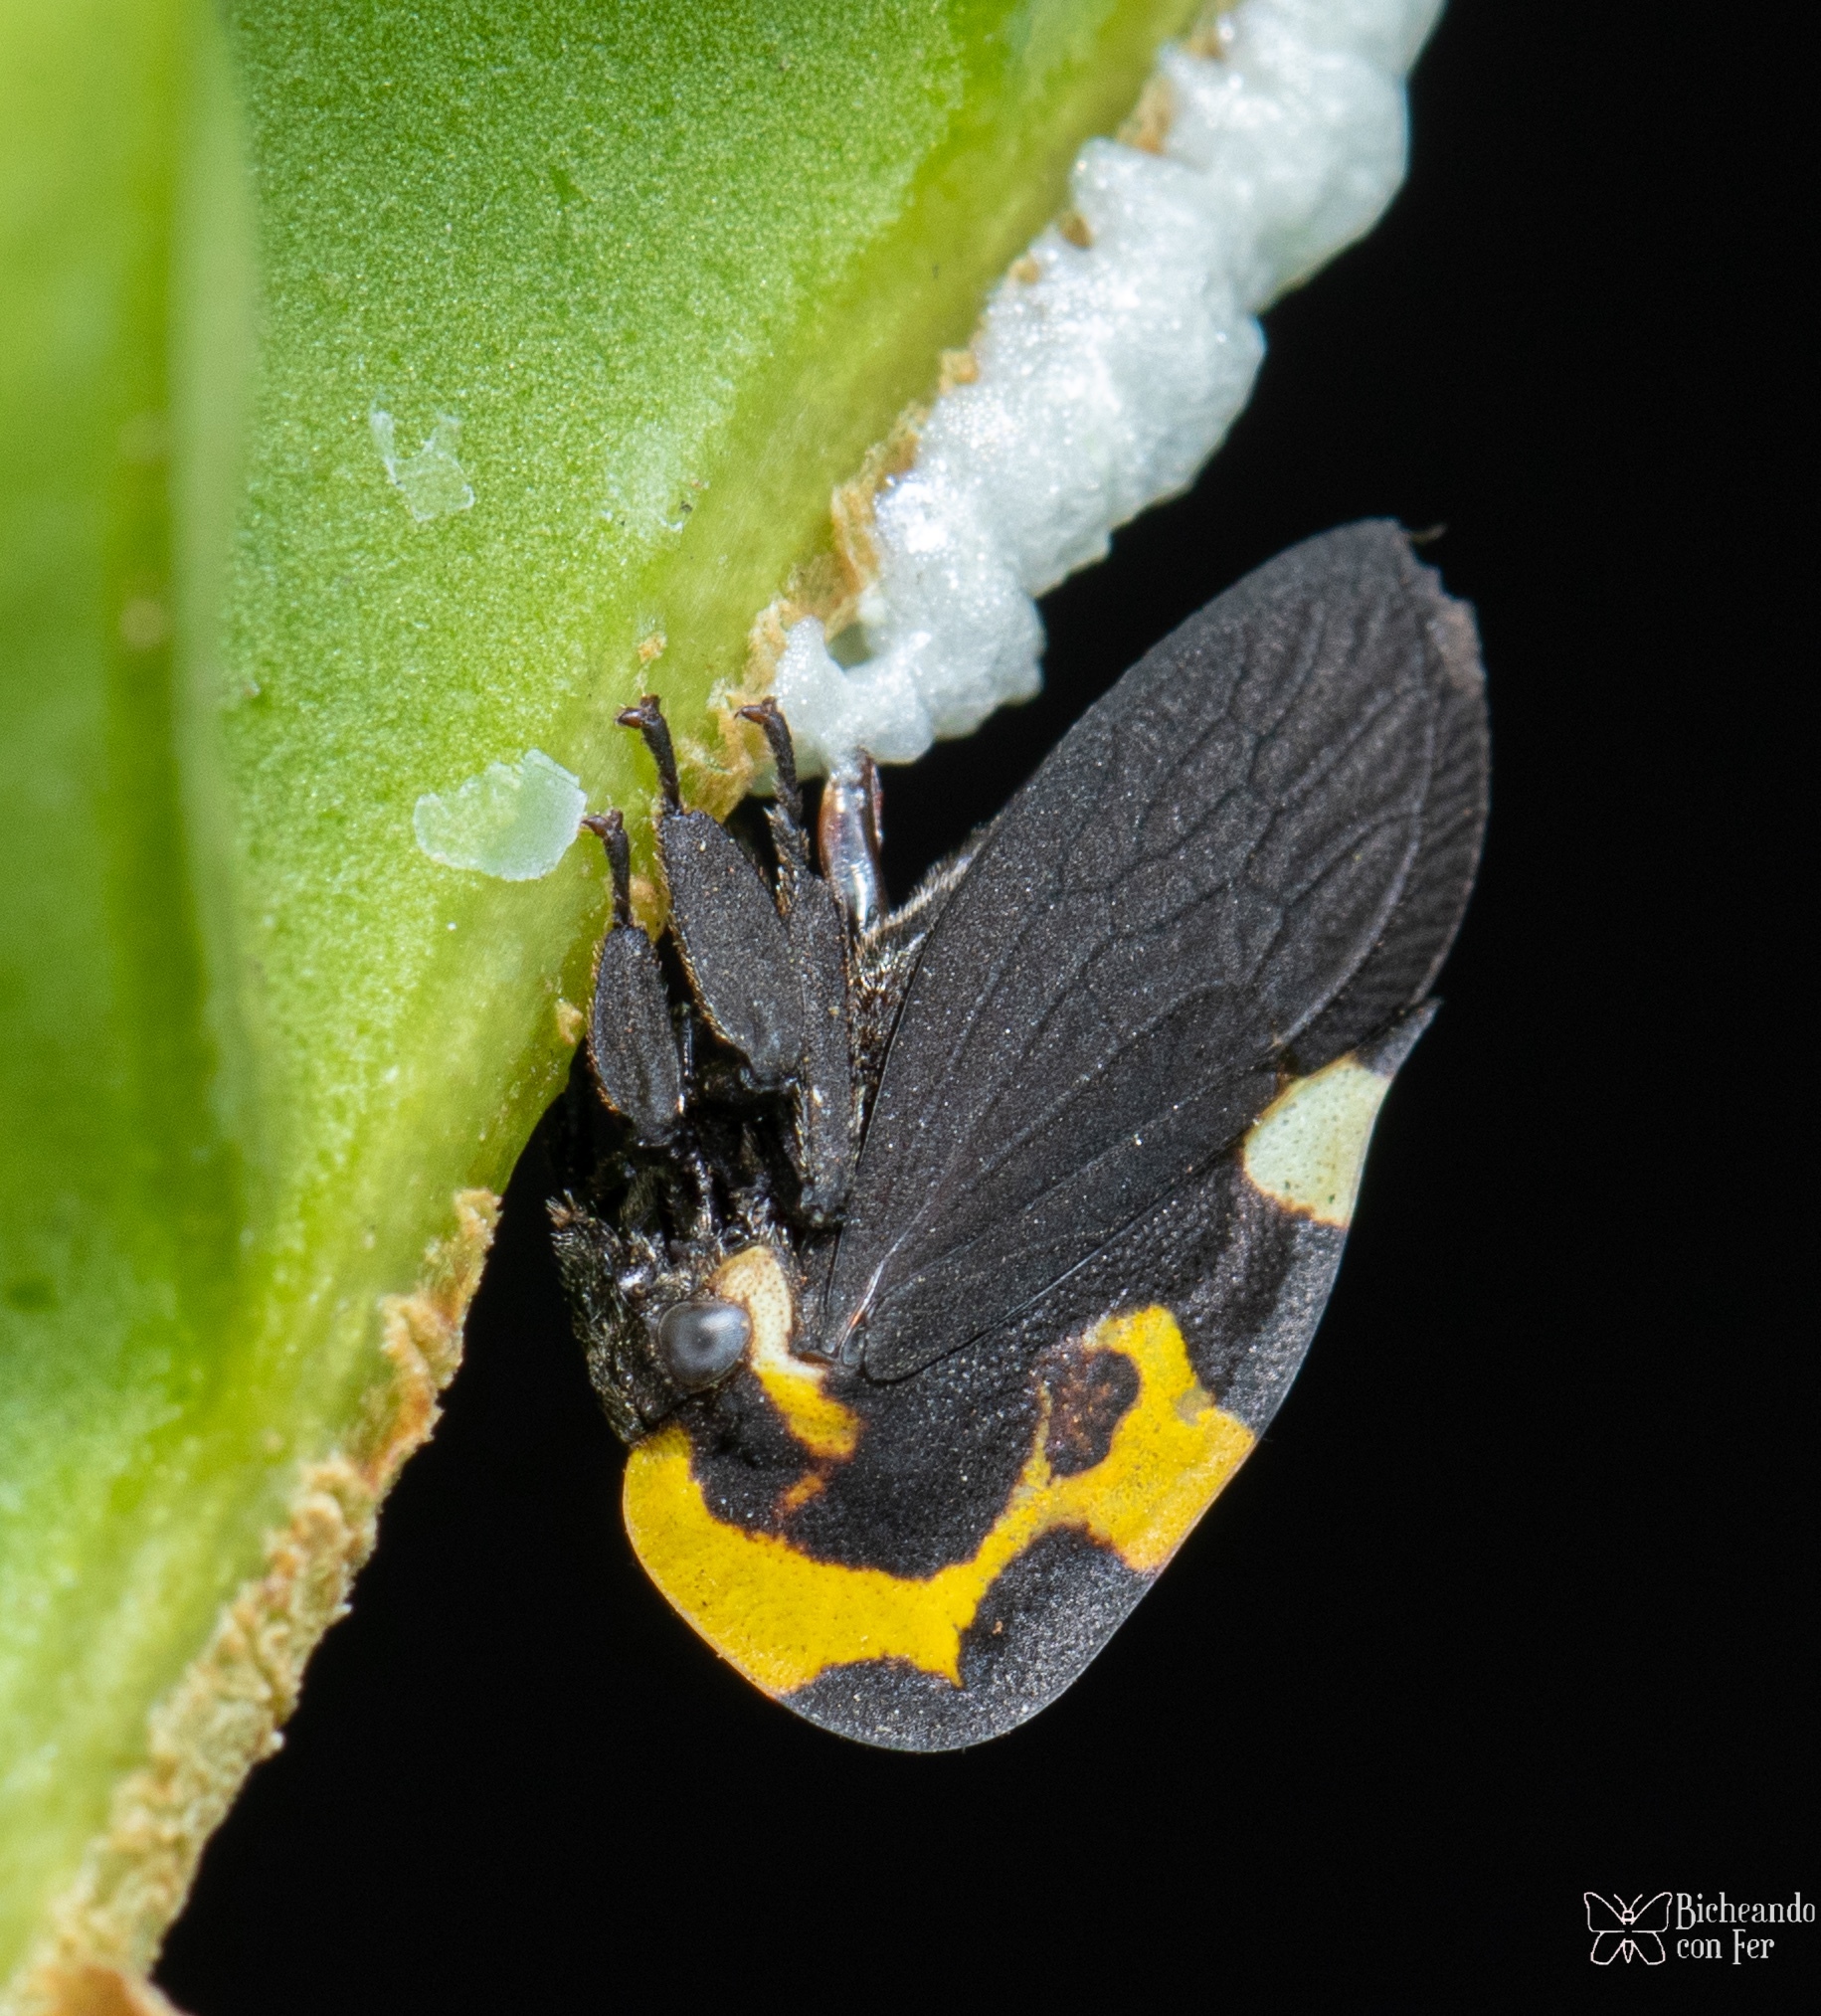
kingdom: Animalia
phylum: Arthropoda
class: Insecta
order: Hemiptera
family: Membracidae
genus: Membracis
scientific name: Membracis mexicana
